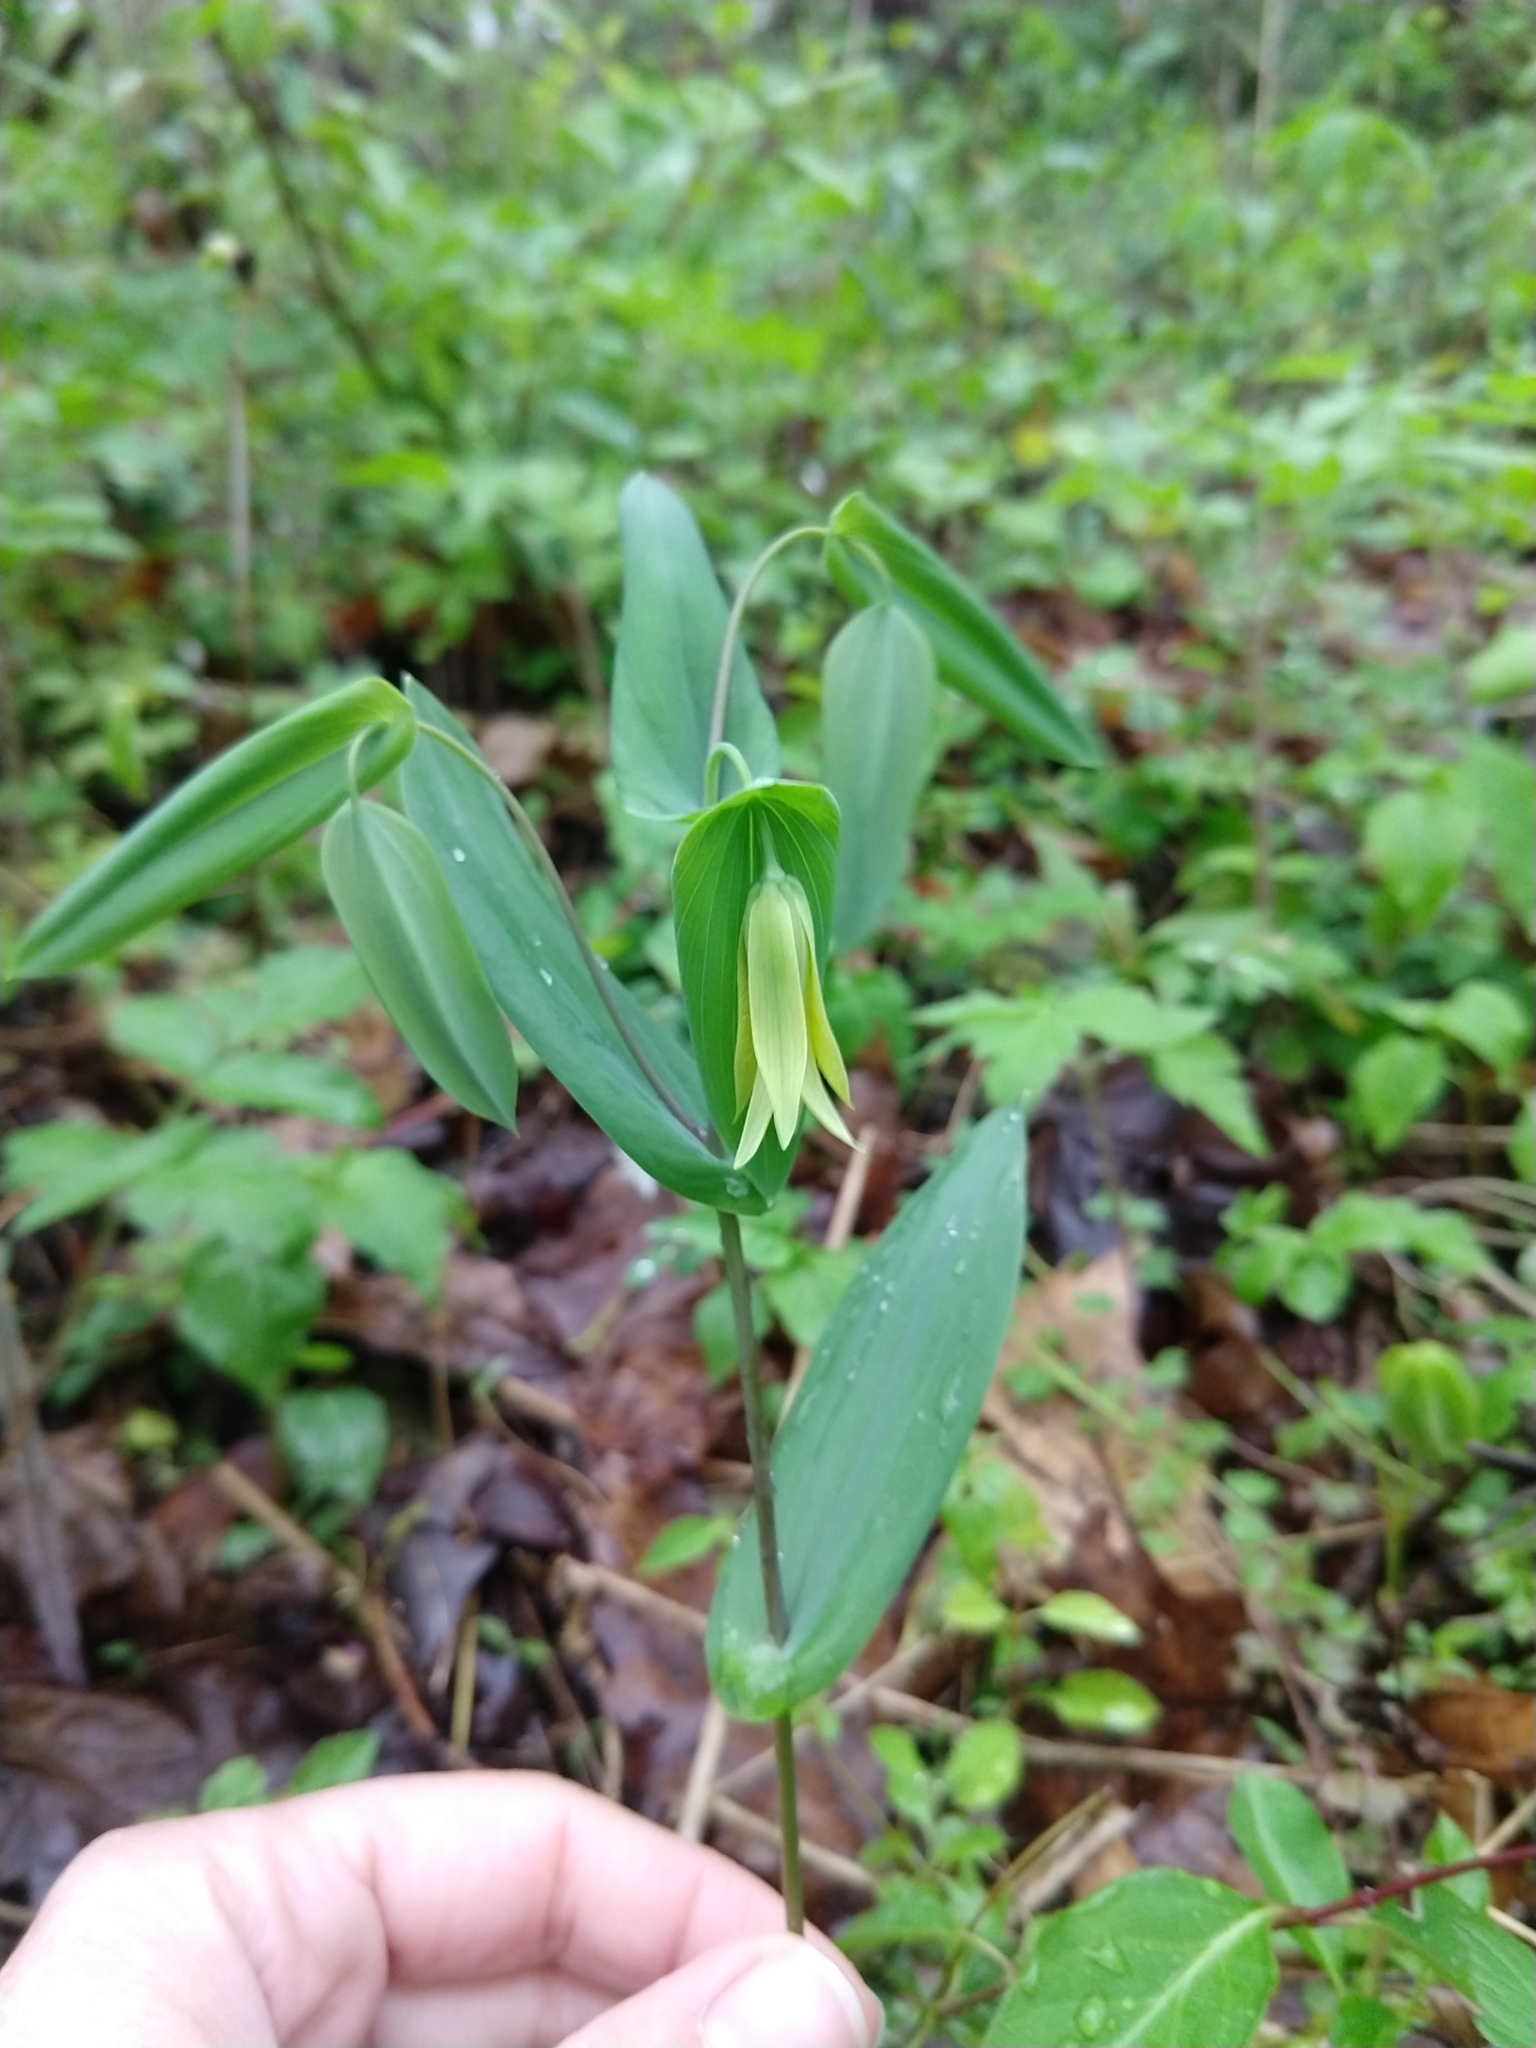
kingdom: Plantae
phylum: Tracheophyta
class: Liliopsida
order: Liliales
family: Colchicaceae
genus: Uvularia
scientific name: Uvularia perfoliata
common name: Perfoliate bellwort
